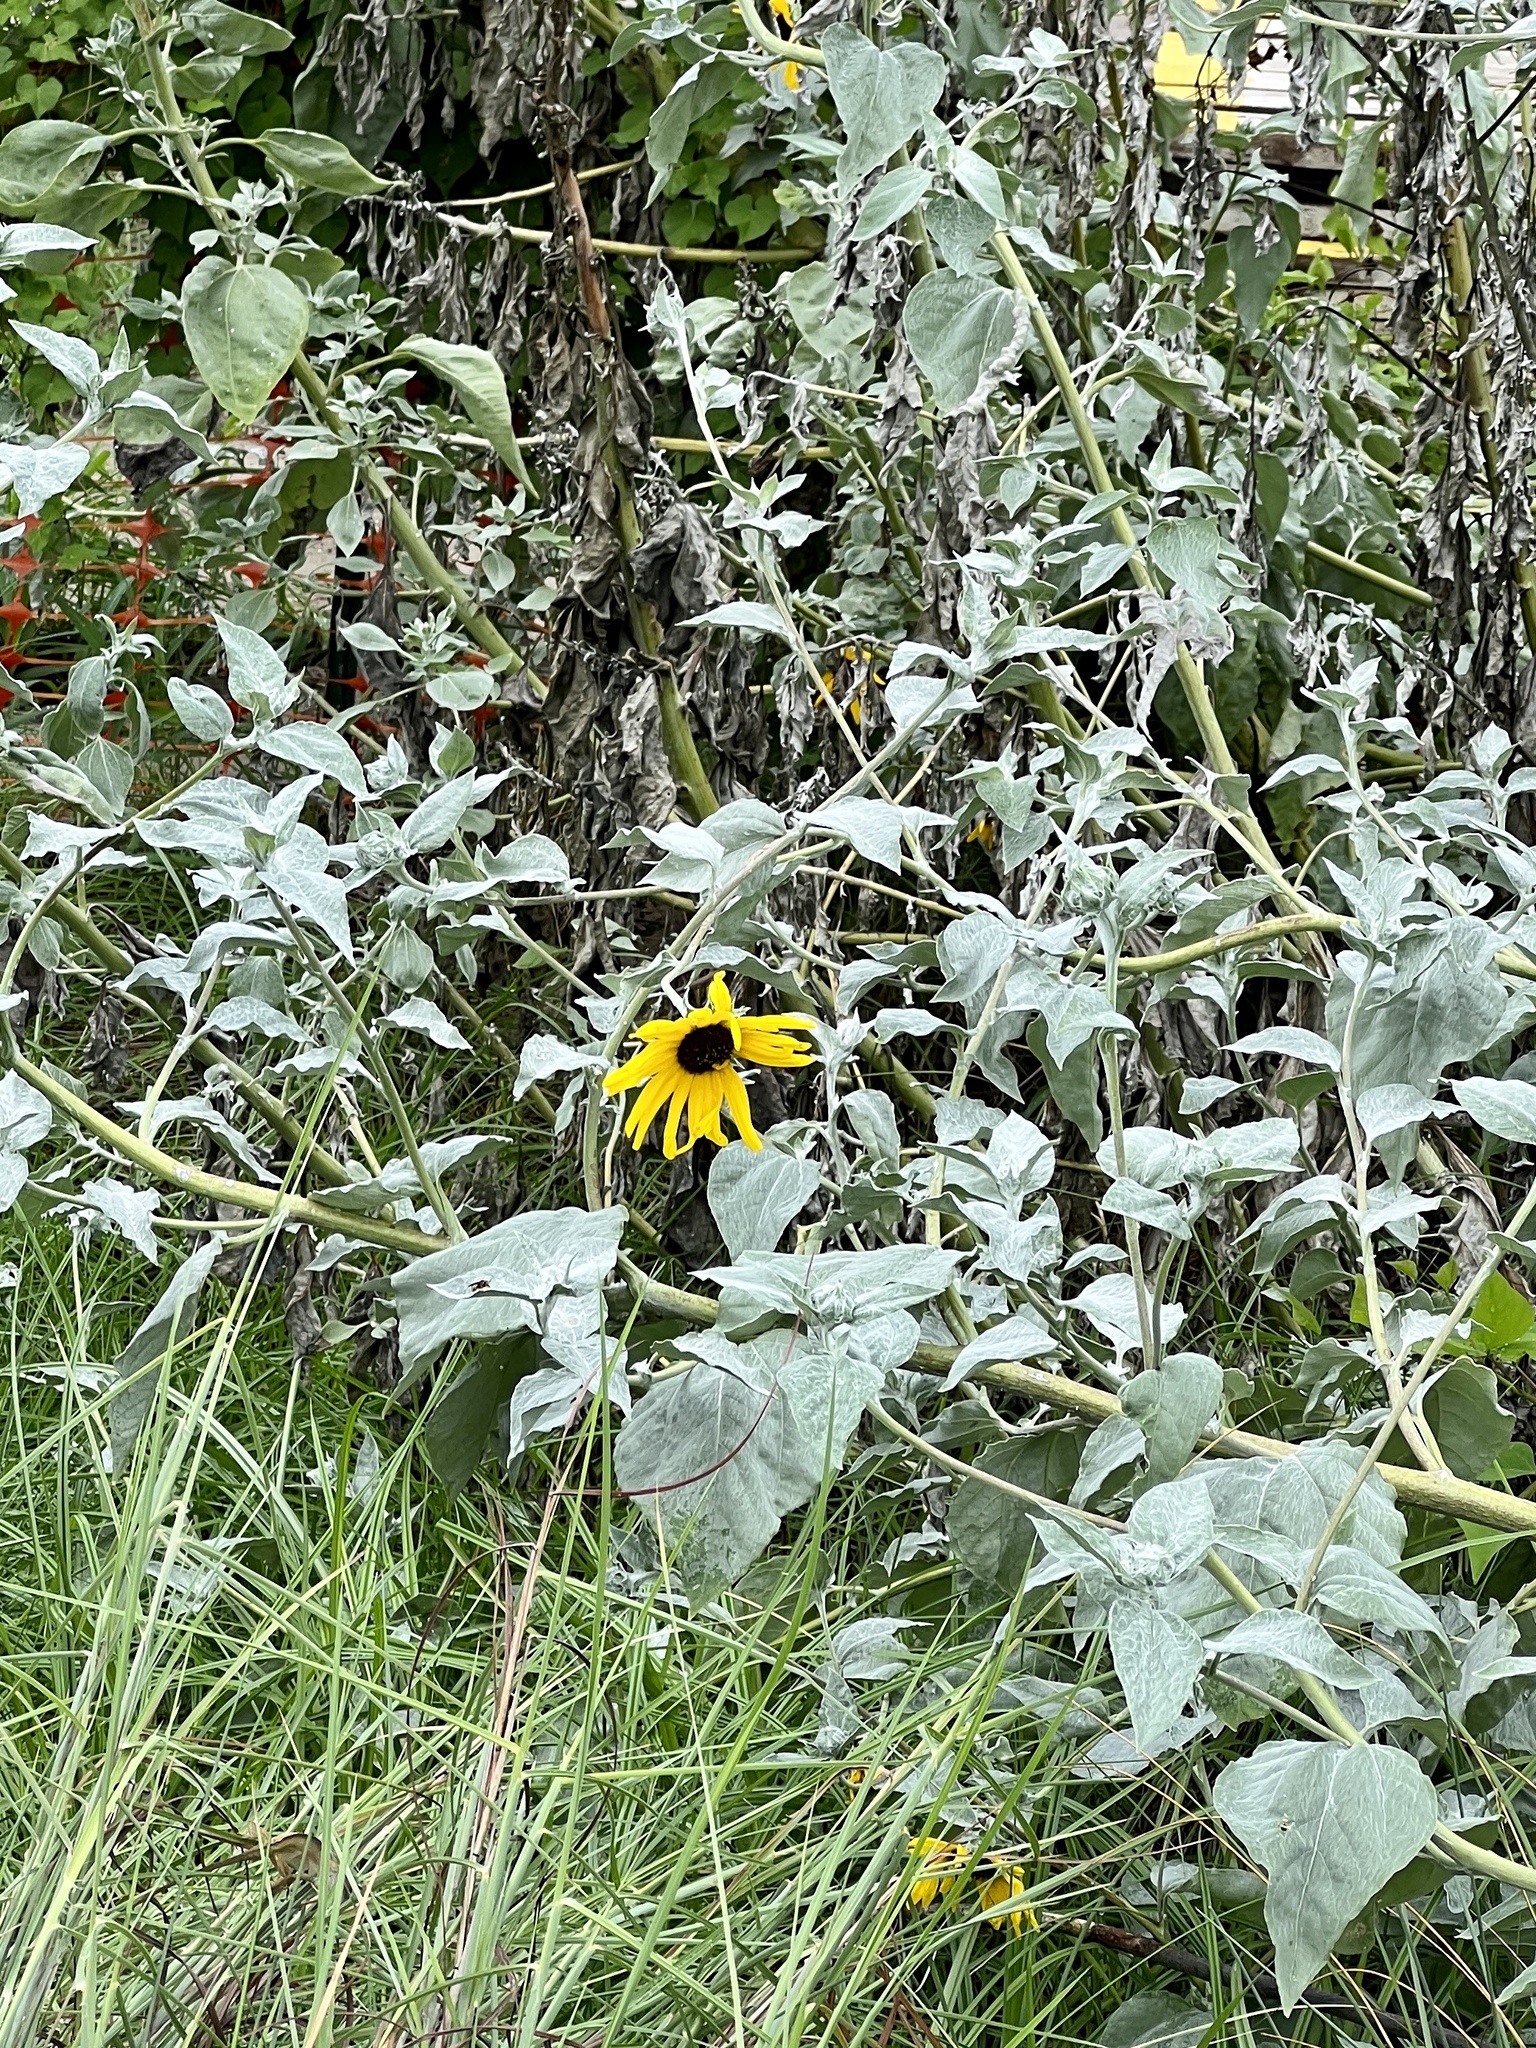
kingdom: Plantae
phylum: Tracheophyta
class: Magnoliopsida
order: Asterales
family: Asteraceae
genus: Helianthus
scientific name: Helianthus argophyllus
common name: Silverleaf sunflower
